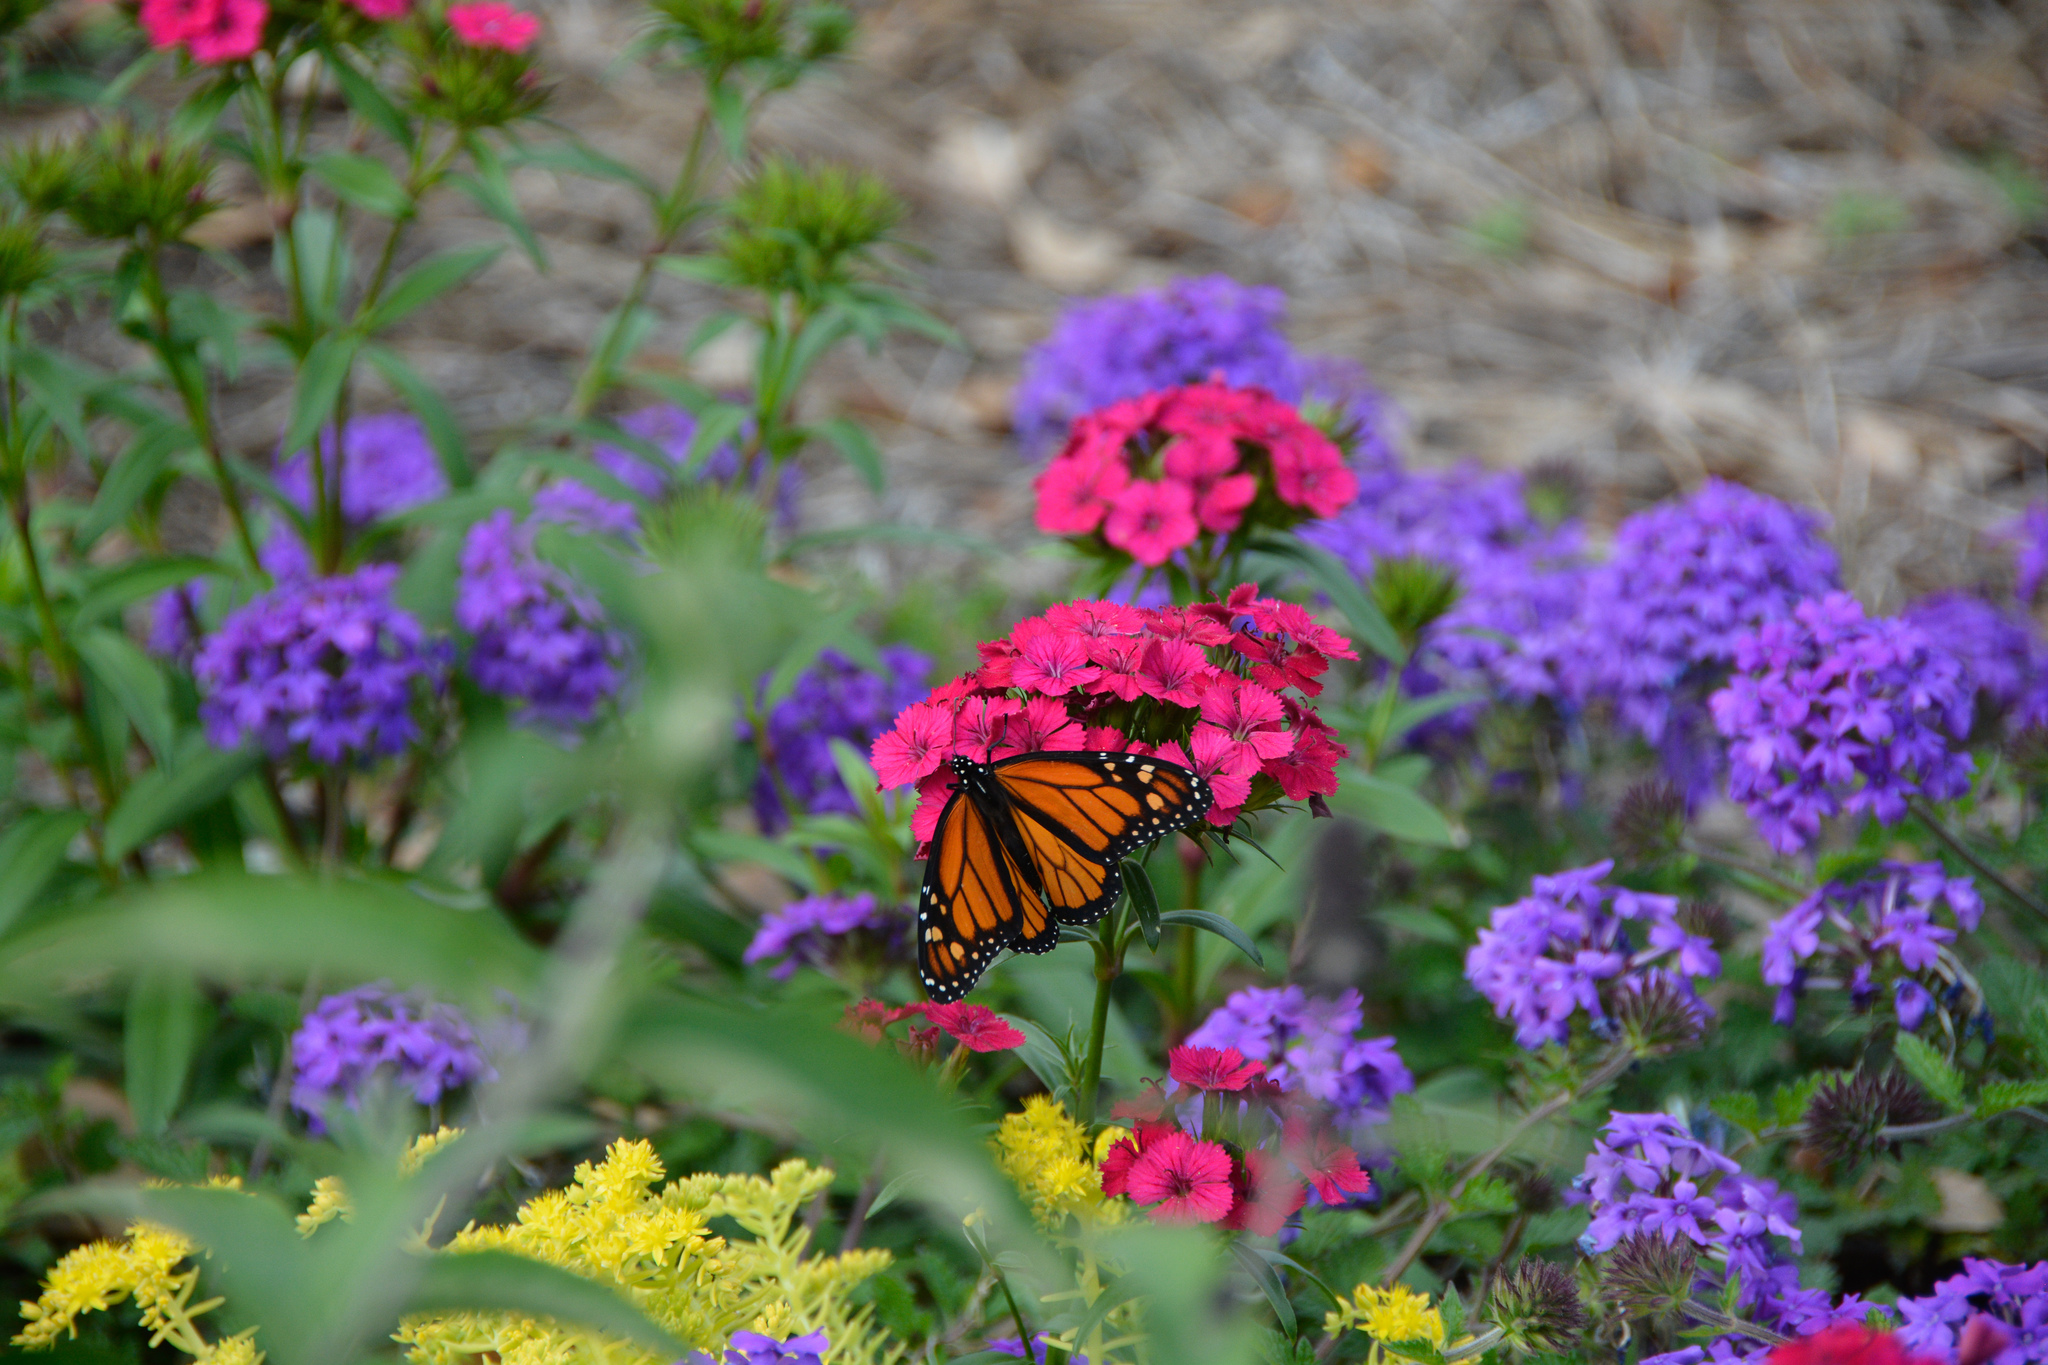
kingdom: Animalia
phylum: Arthropoda
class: Insecta
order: Lepidoptera
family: Nymphalidae
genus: Danaus
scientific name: Danaus plexippus
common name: Monarch
